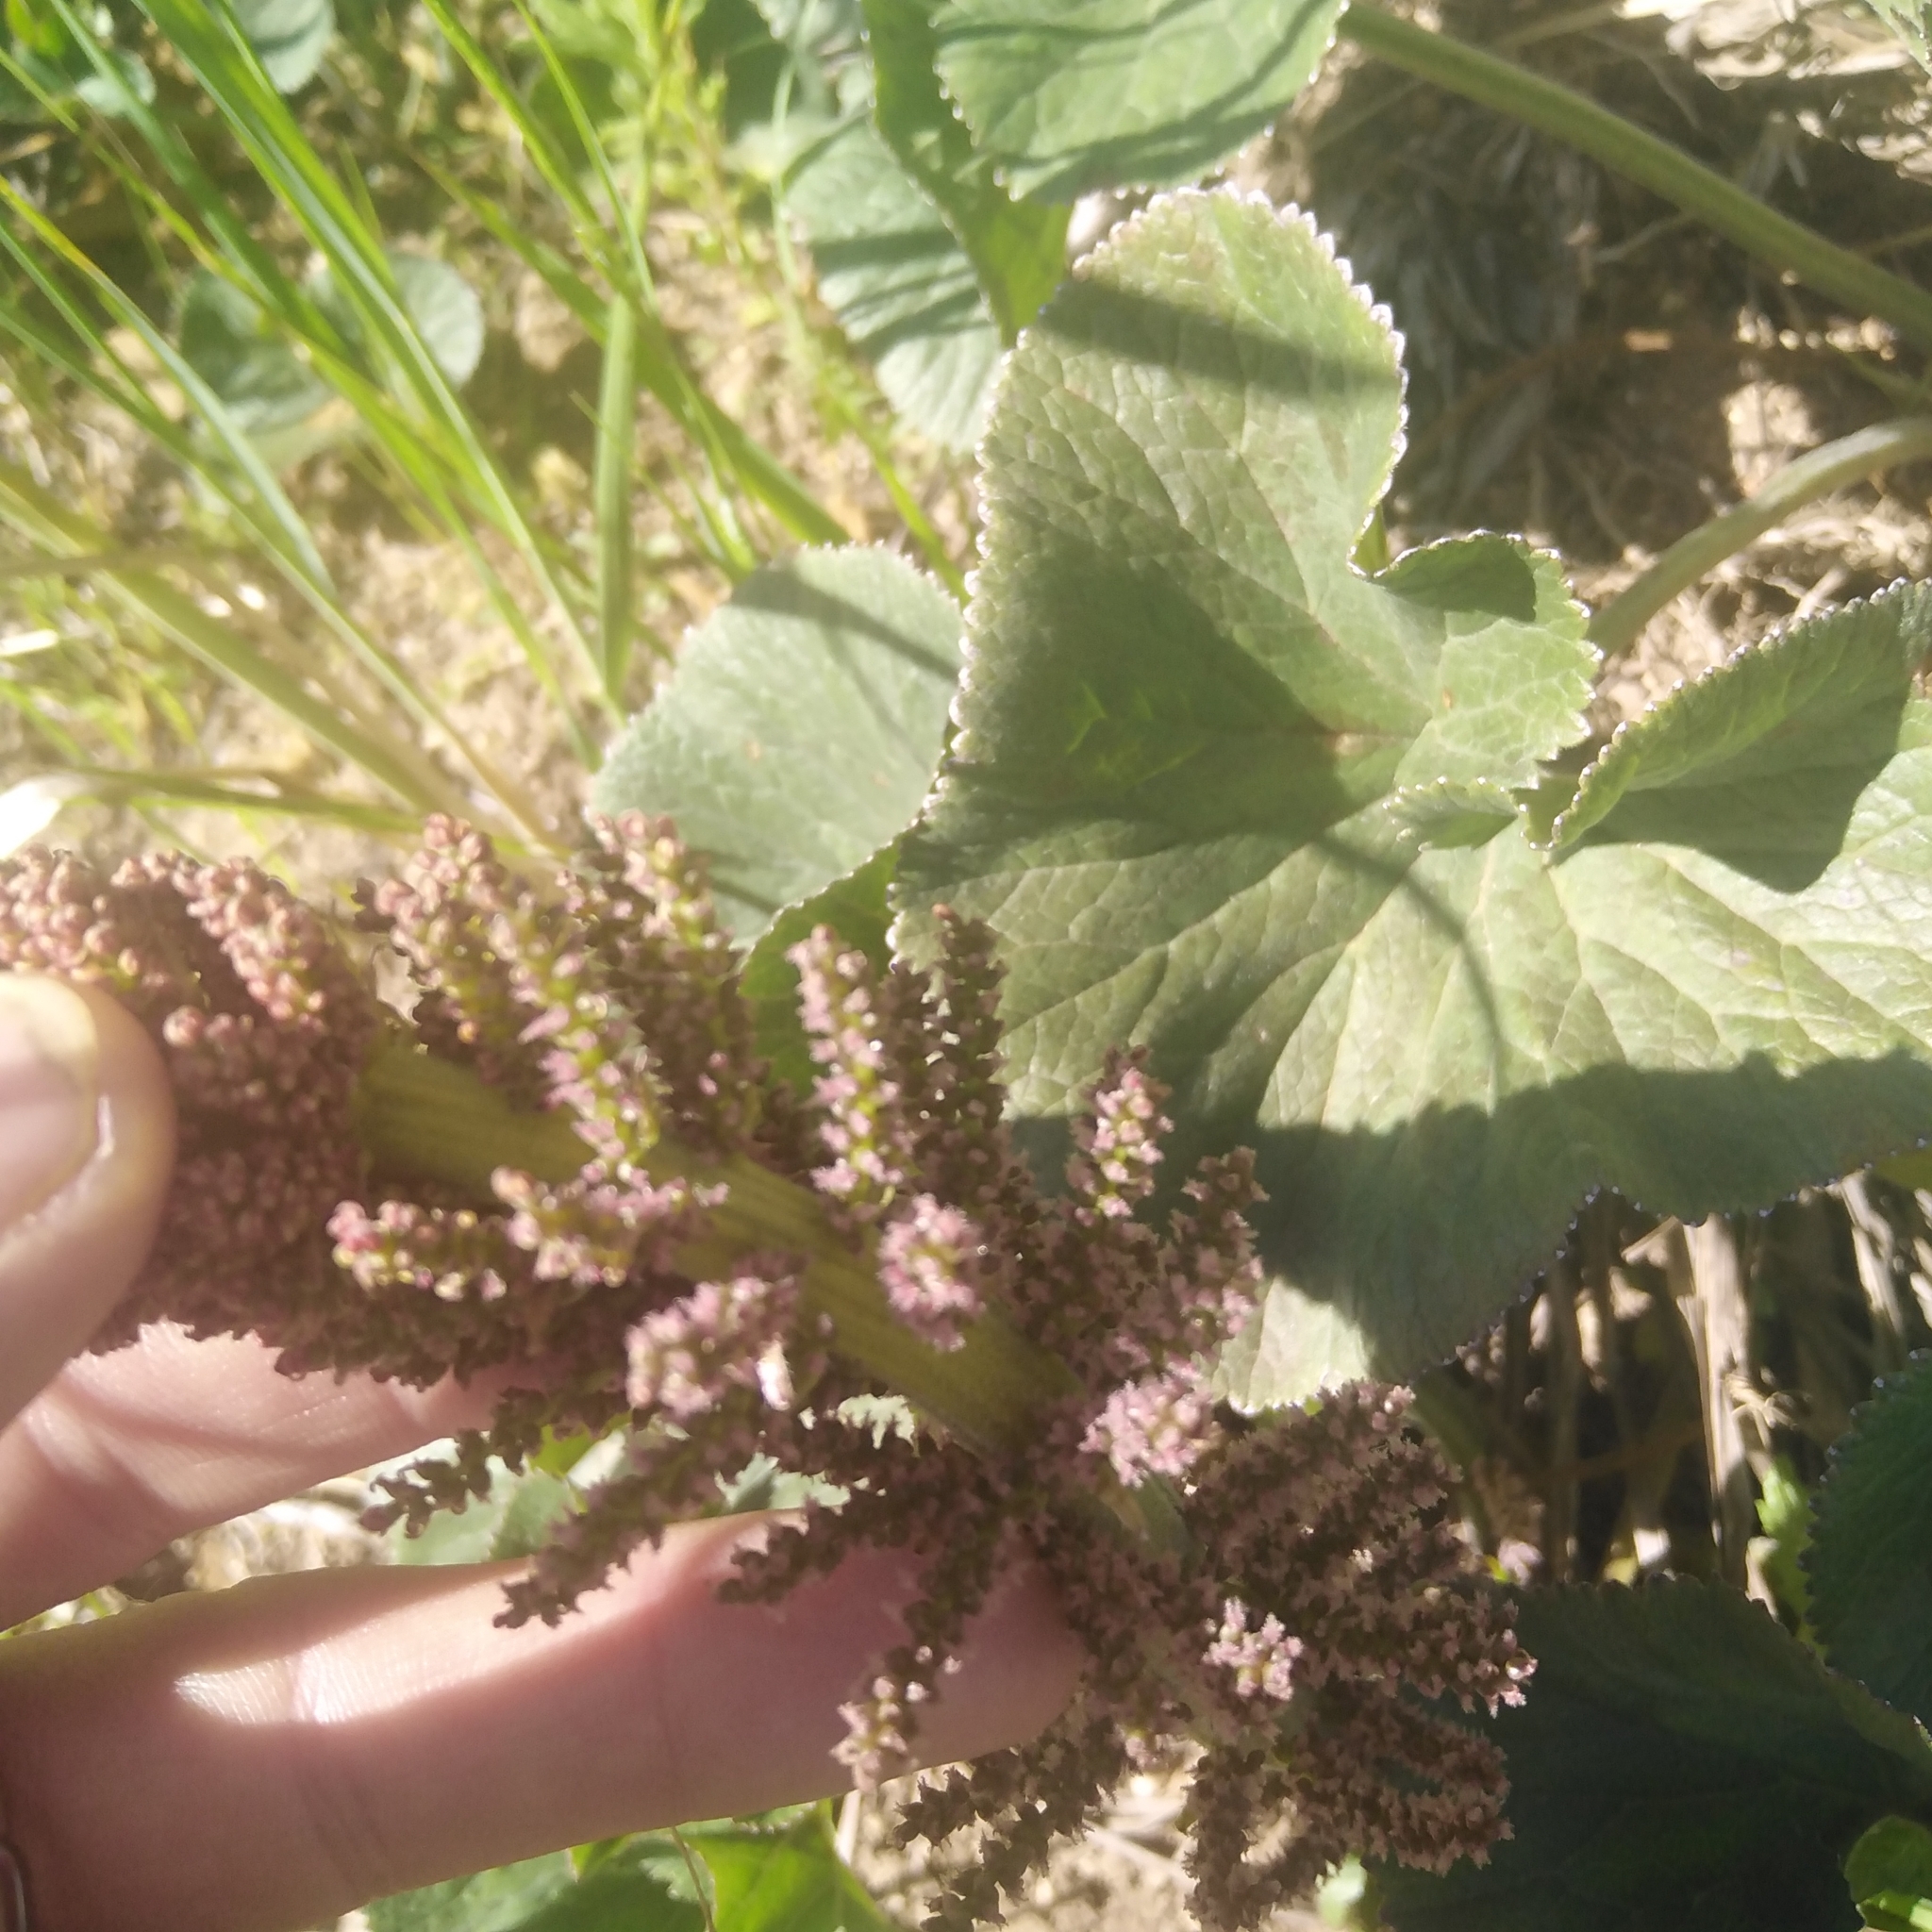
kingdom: Plantae
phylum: Tracheophyta
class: Magnoliopsida
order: Gunnerales
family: Gunneraceae
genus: Gunnera
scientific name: Gunnera perpensa
